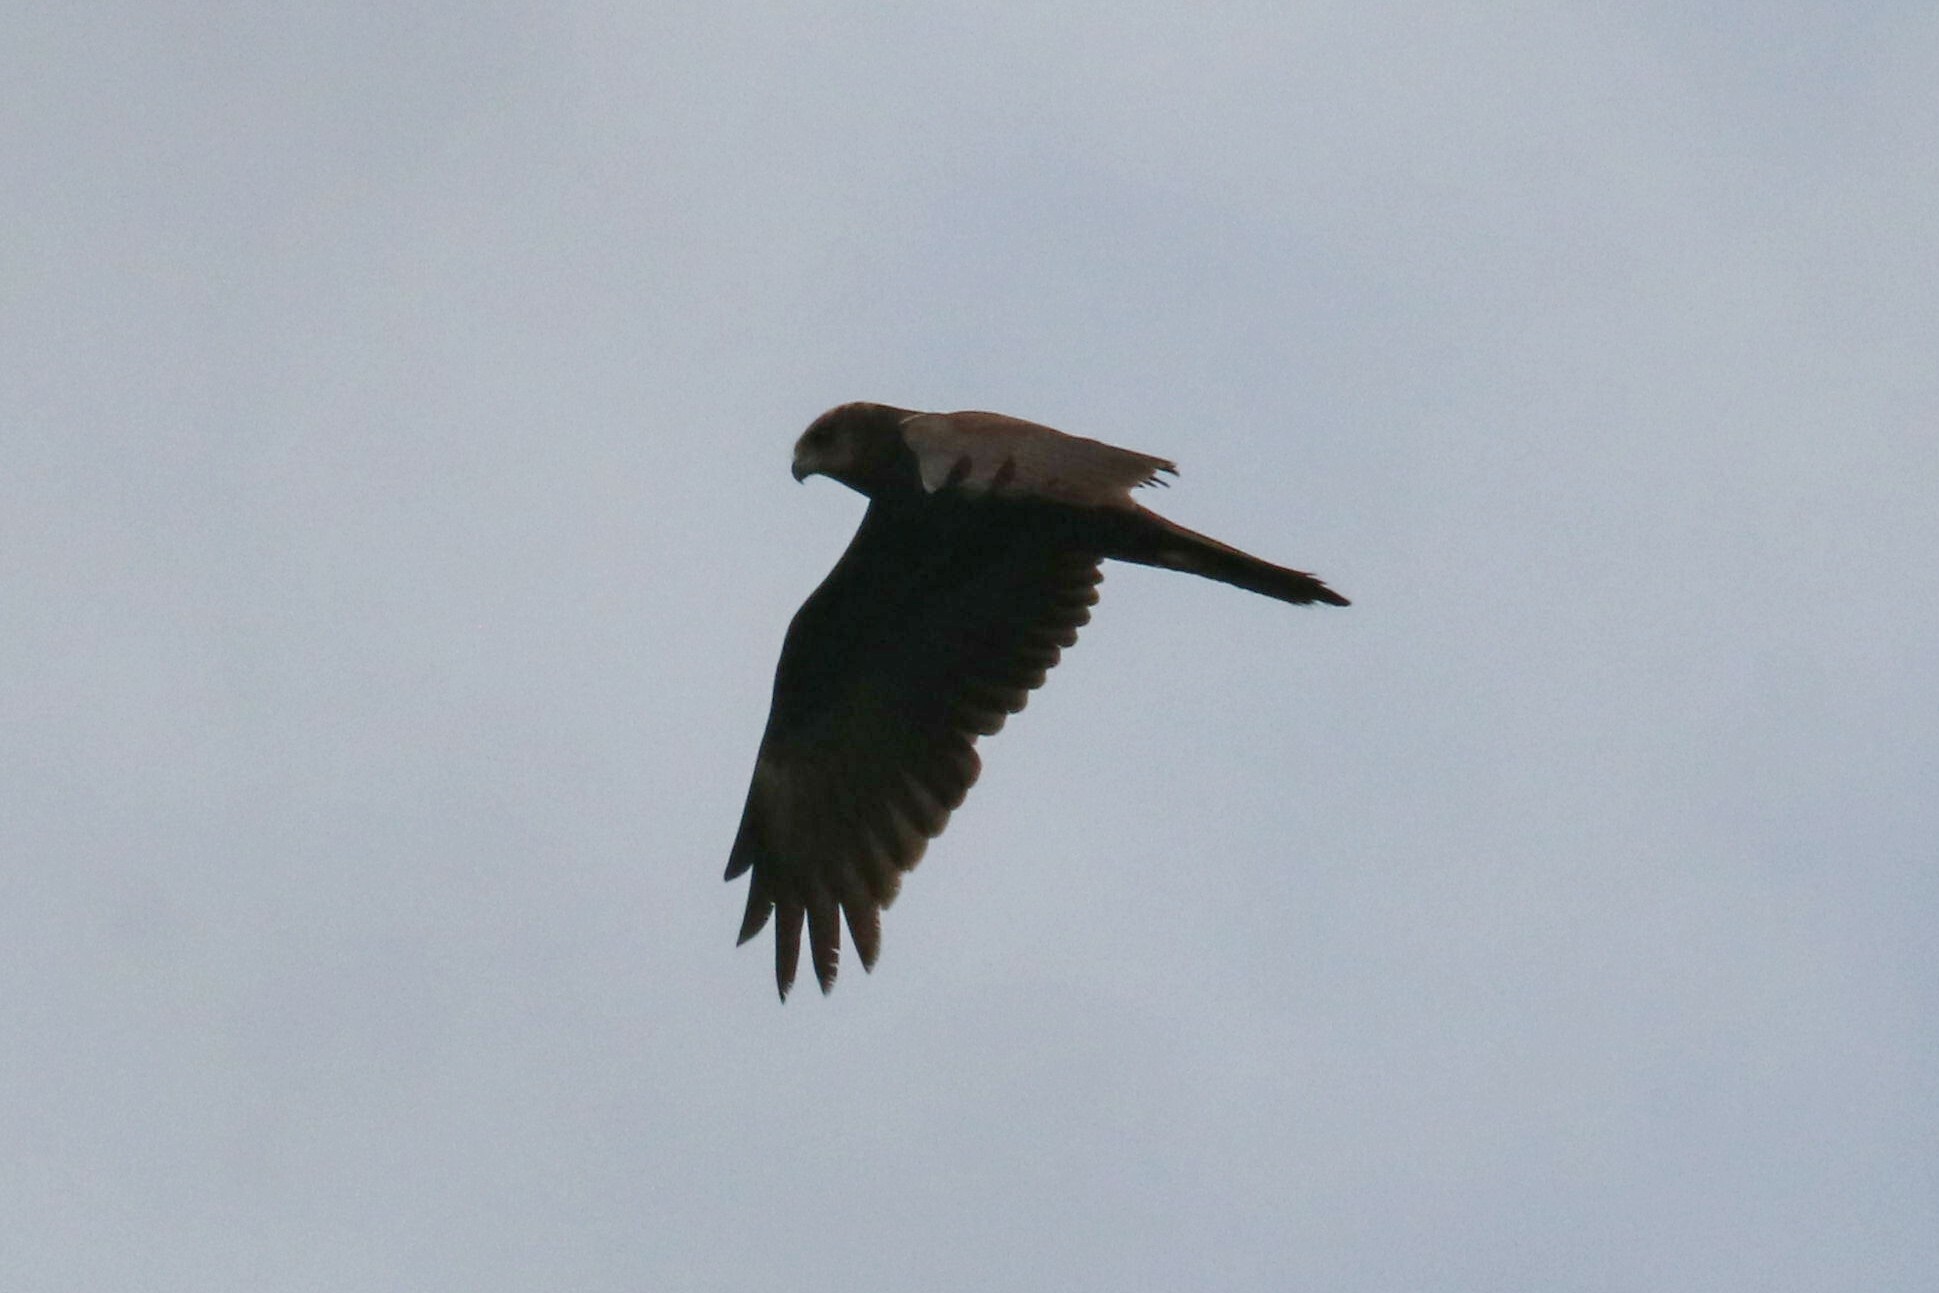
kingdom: Animalia
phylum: Chordata
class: Aves
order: Accipitriformes
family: Accipitridae
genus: Circus
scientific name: Circus aeruginosus
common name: Western marsh harrier
